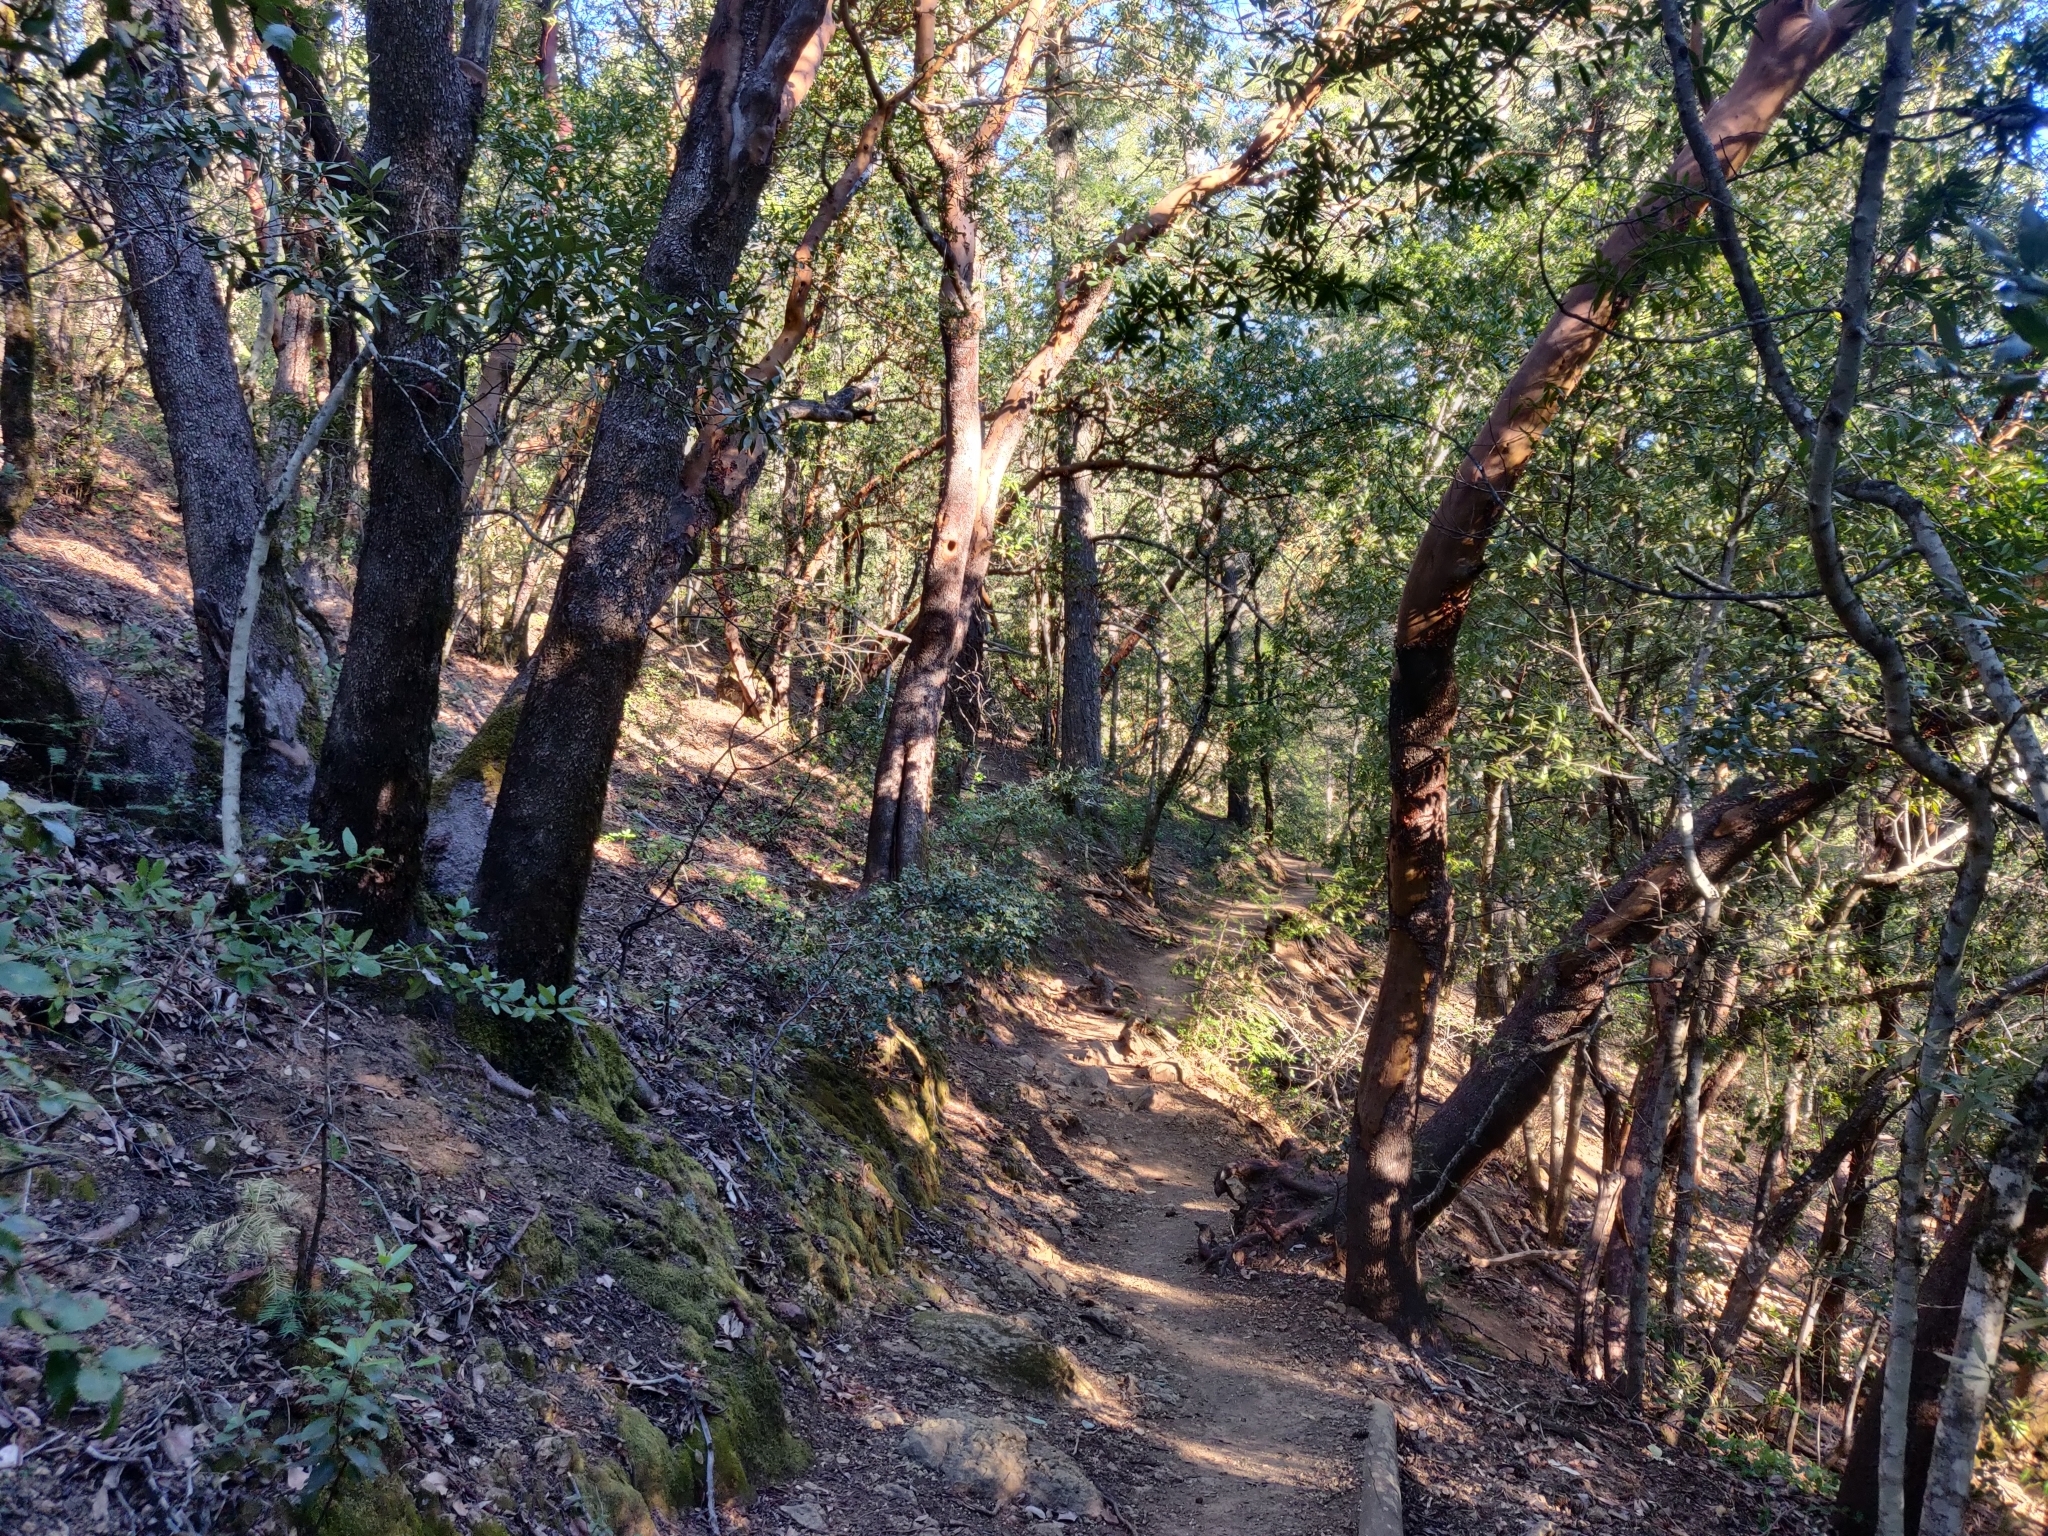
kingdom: Plantae
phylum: Tracheophyta
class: Magnoliopsida
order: Ericales
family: Ericaceae
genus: Arbutus
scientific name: Arbutus menziesii
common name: Pacific madrone
